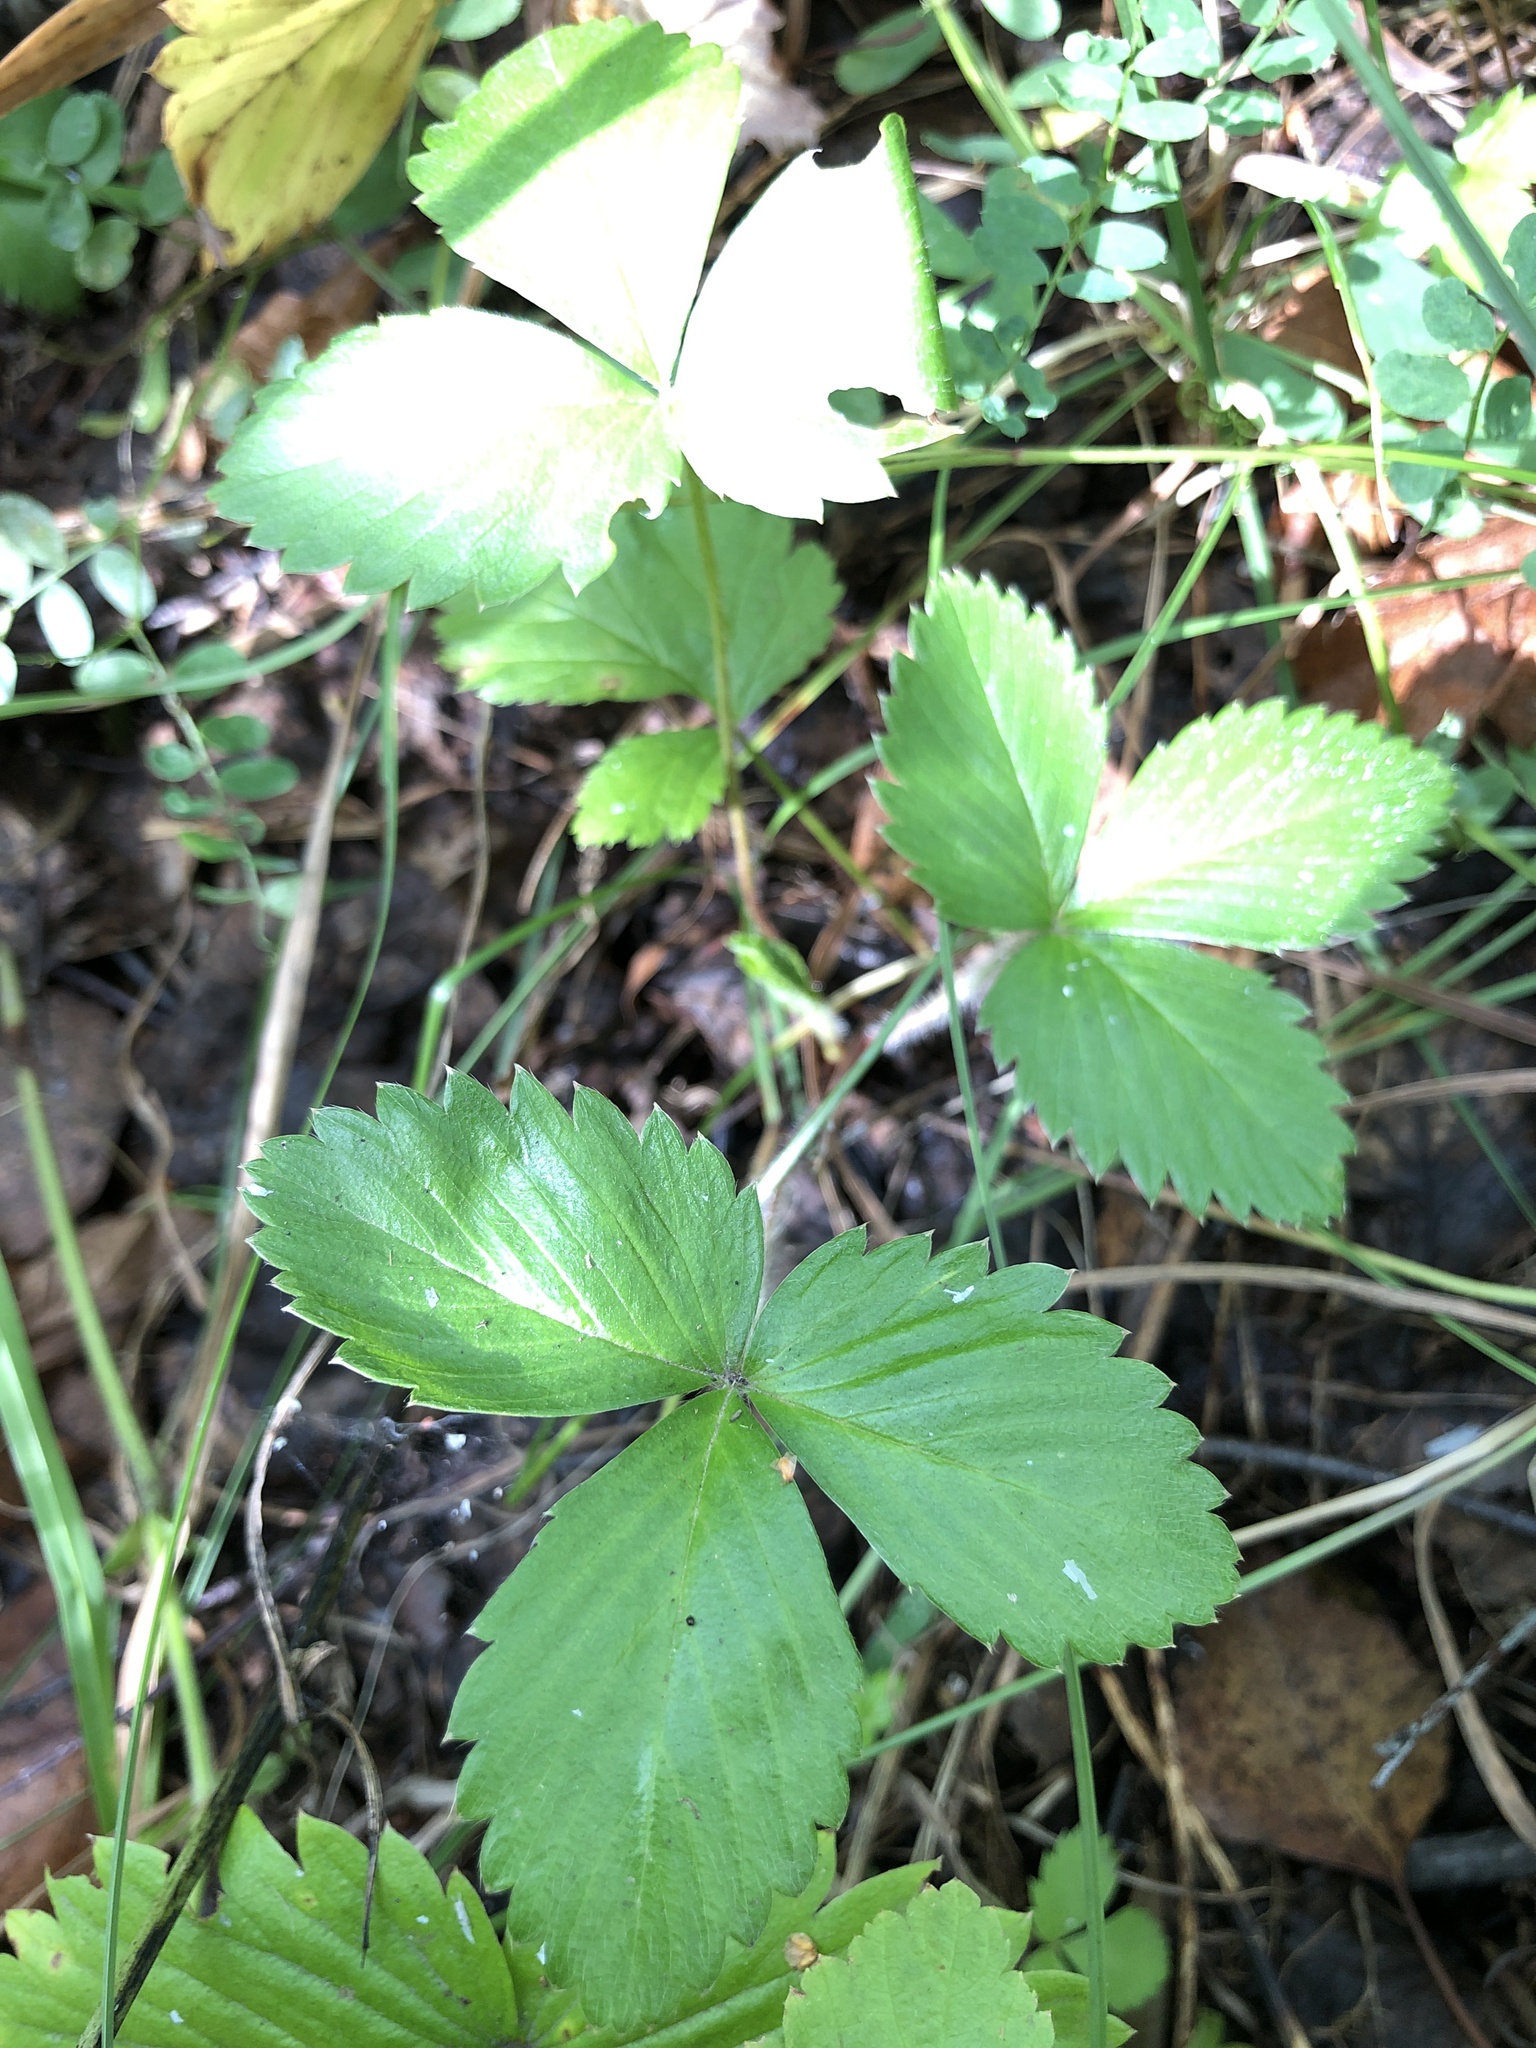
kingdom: Plantae
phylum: Tracheophyta
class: Magnoliopsida
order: Rosales
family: Rosaceae
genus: Fragaria
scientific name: Fragaria vesca
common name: Wild strawberry
